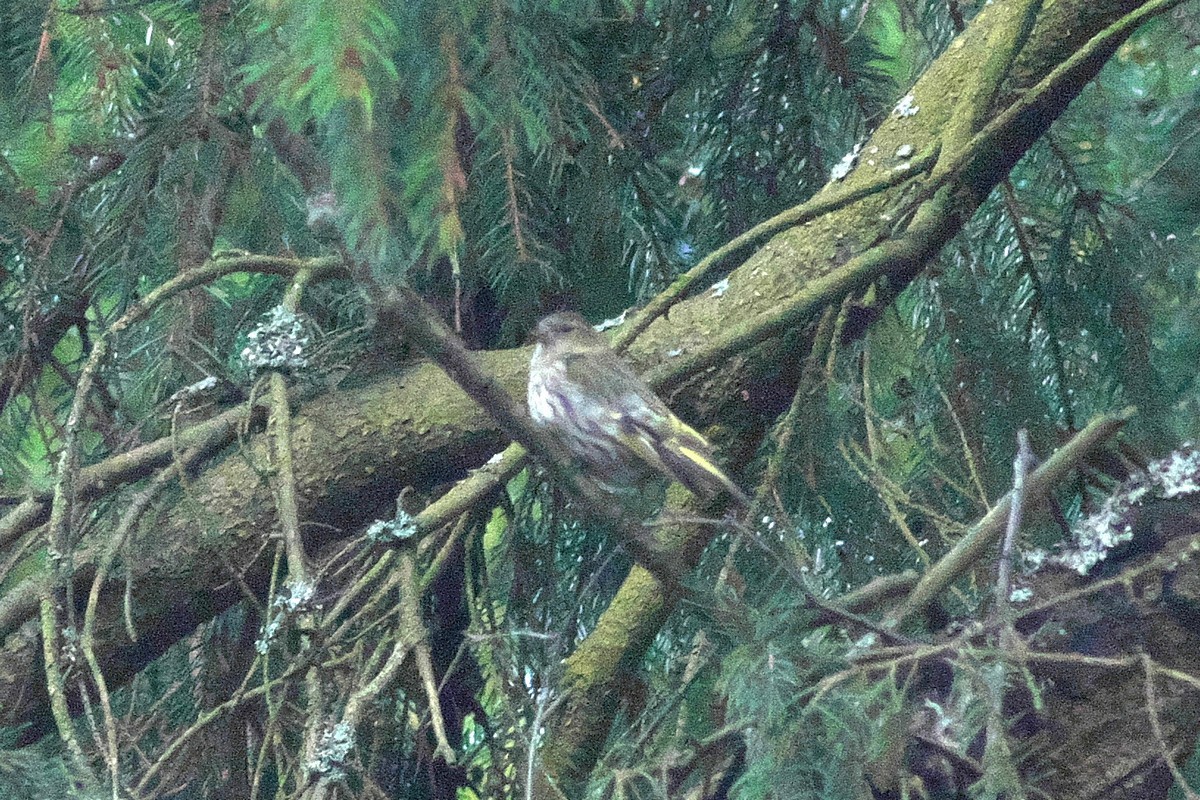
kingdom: Animalia
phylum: Chordata
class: Aves
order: Passeriformes
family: Fringillidae
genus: Spinus
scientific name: Spinus spinus
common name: Eurasian siskin
